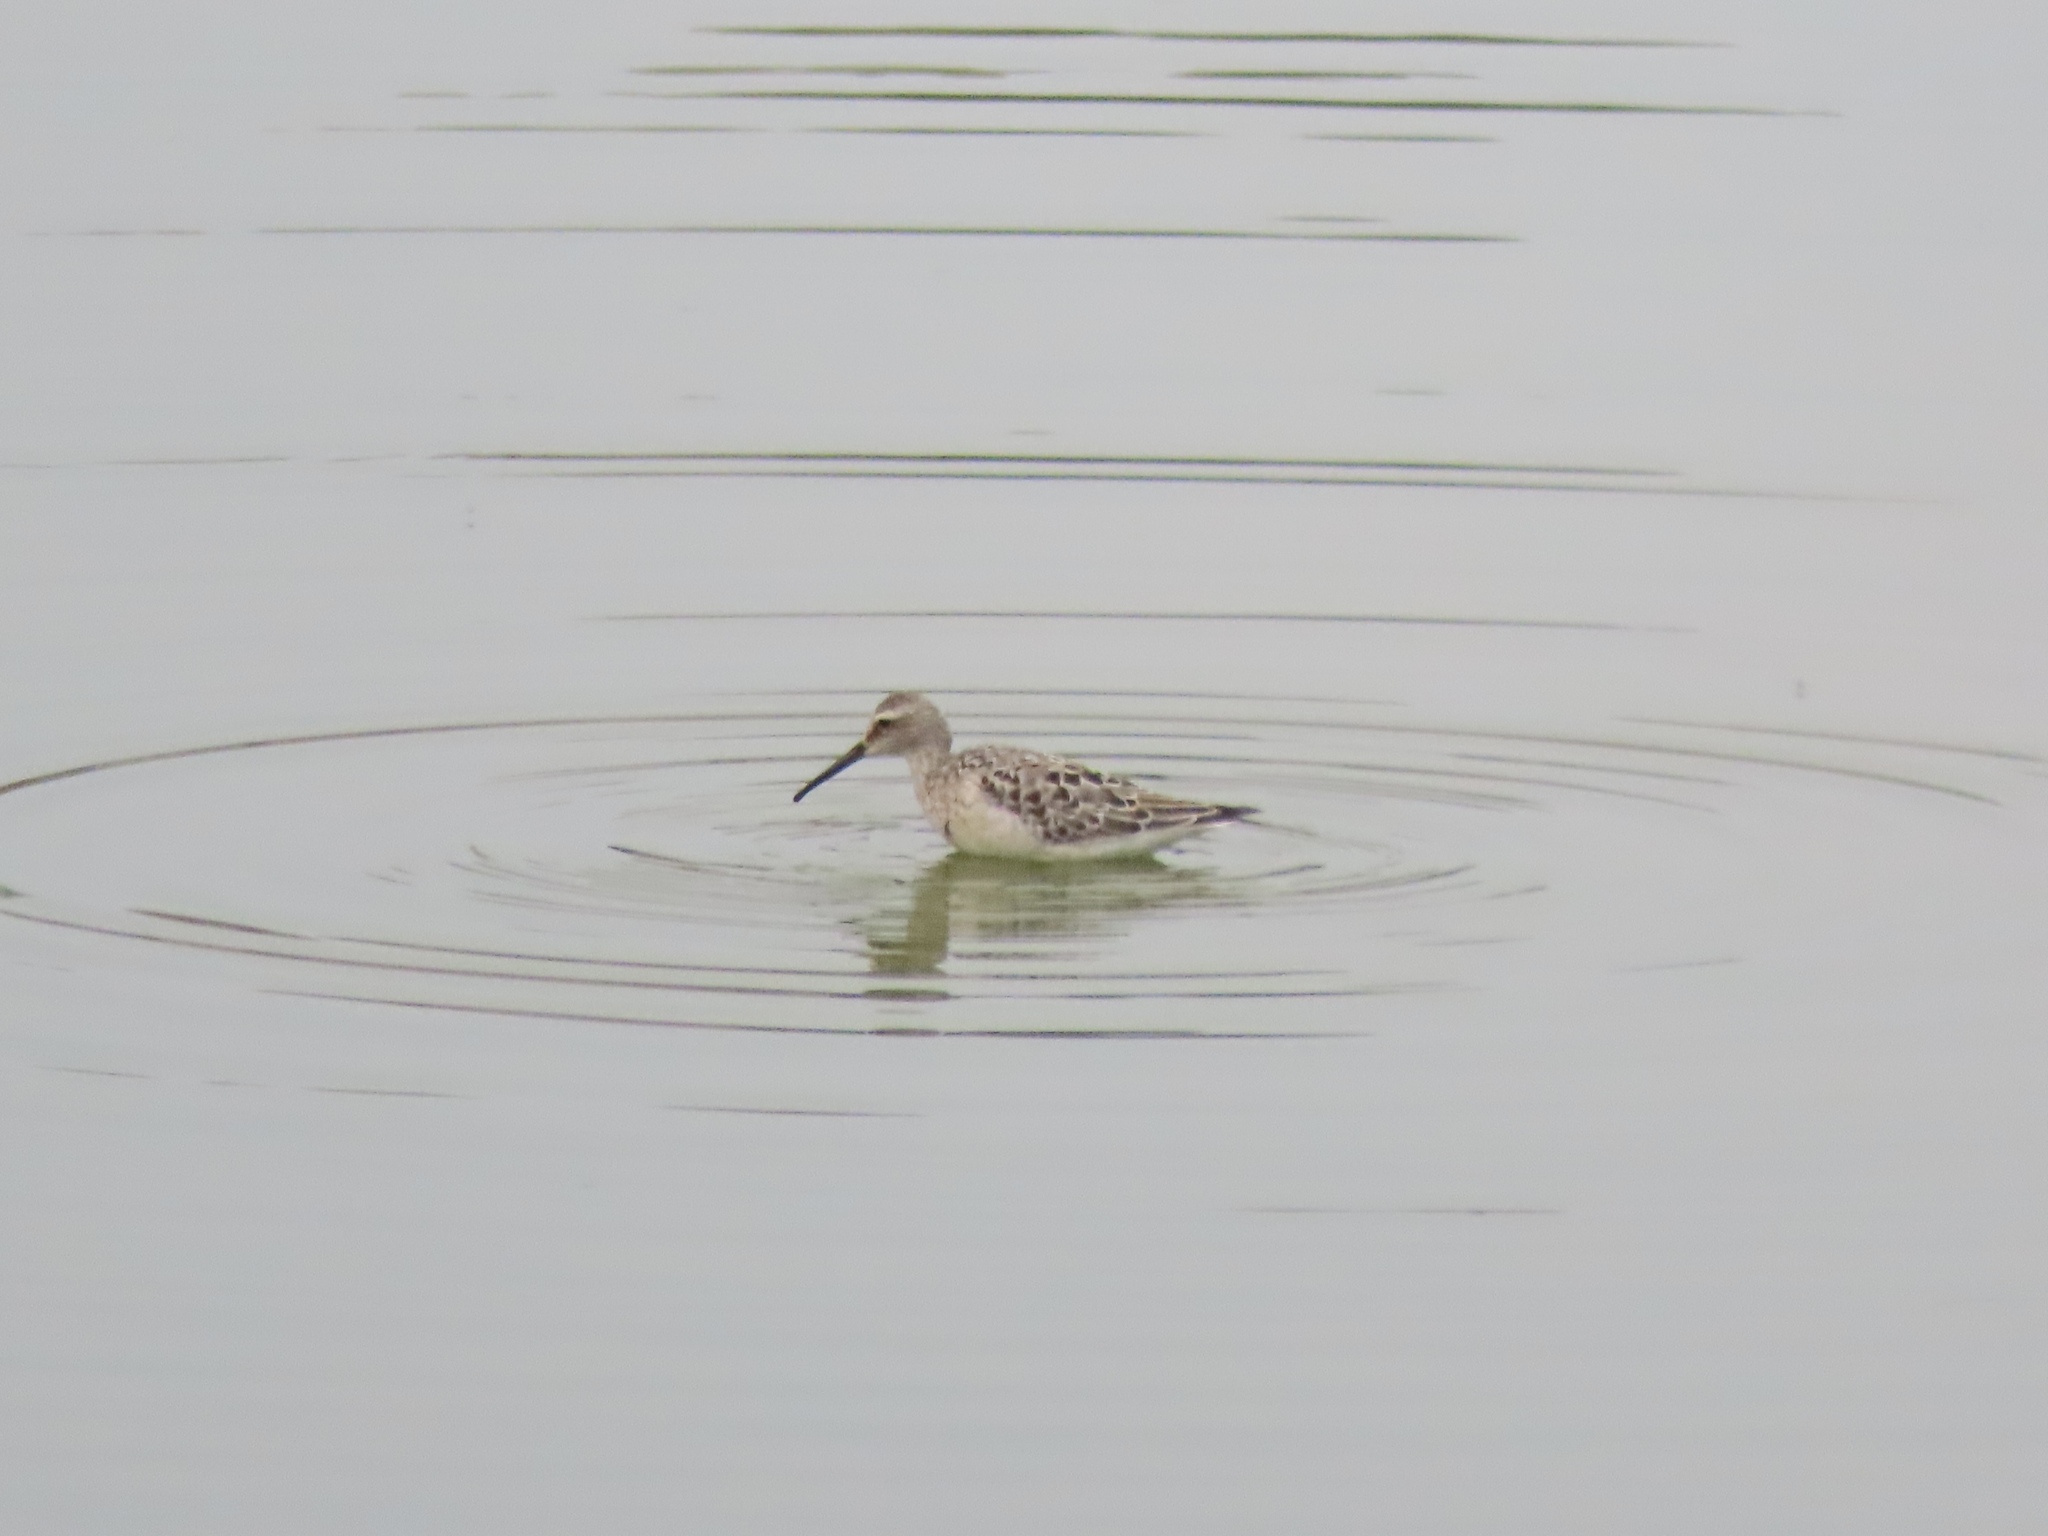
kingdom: Animalia
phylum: Chordata
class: Aves
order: Charadriiformes
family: Scolopacidae
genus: Calidris
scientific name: Calidris himantopus
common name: Stilt sandpiper
